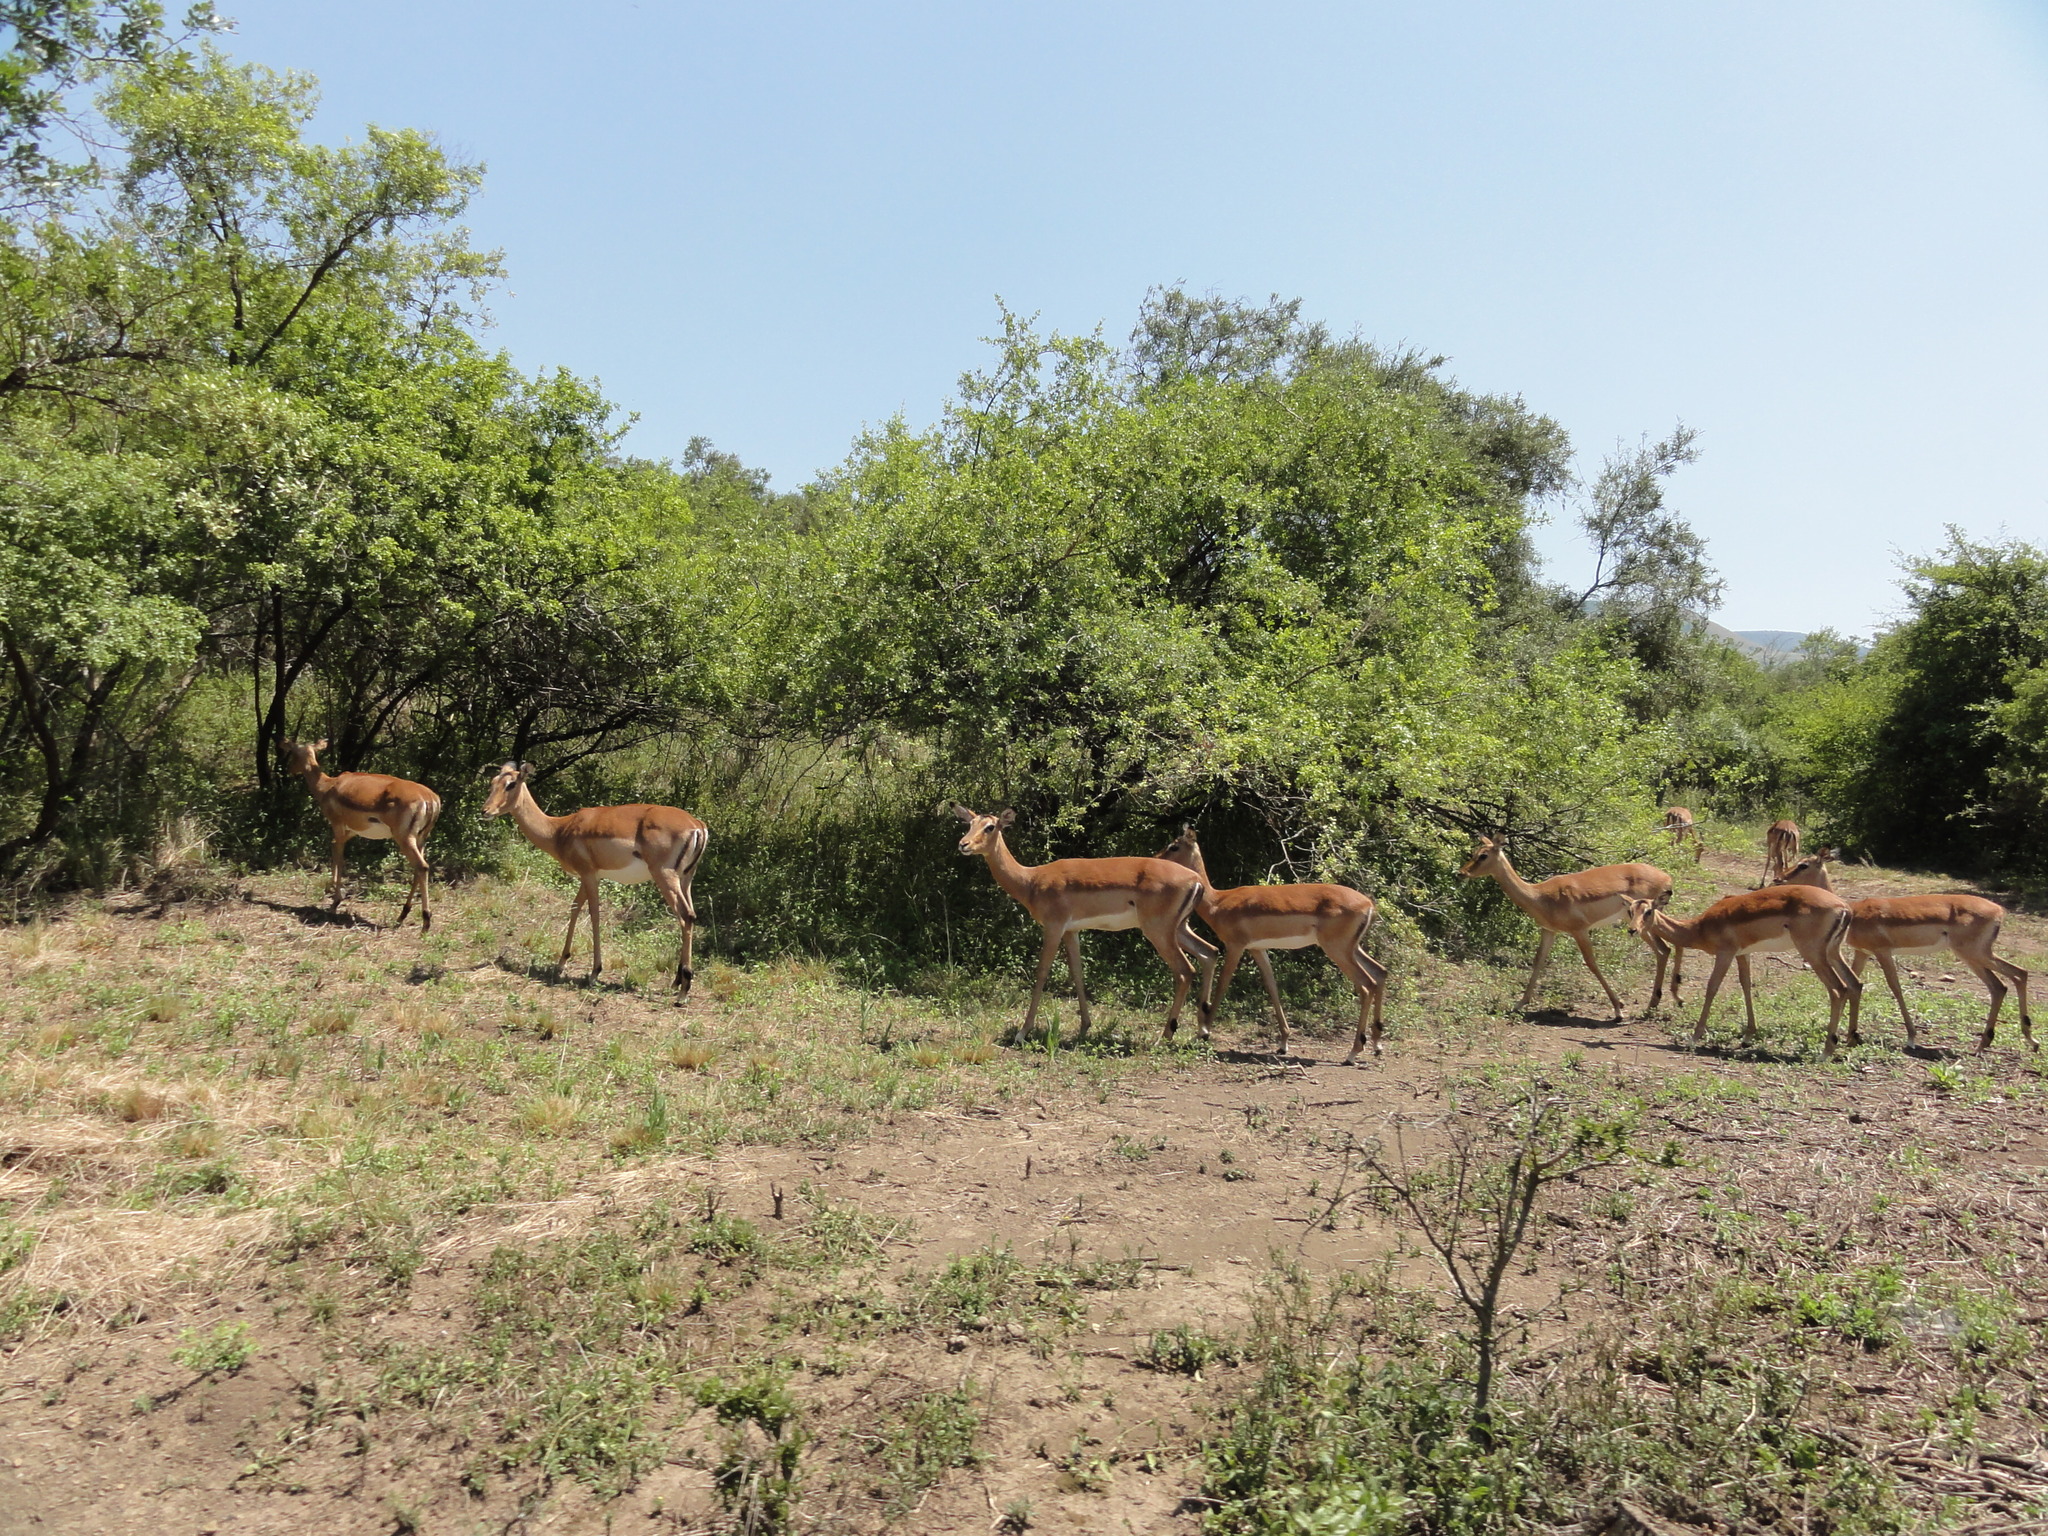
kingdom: Animalia
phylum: Chordata
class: Mammalia
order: Artiodactyla
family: Bovidae
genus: Aepyceros
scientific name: Aepyceros melampus
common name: Impala
